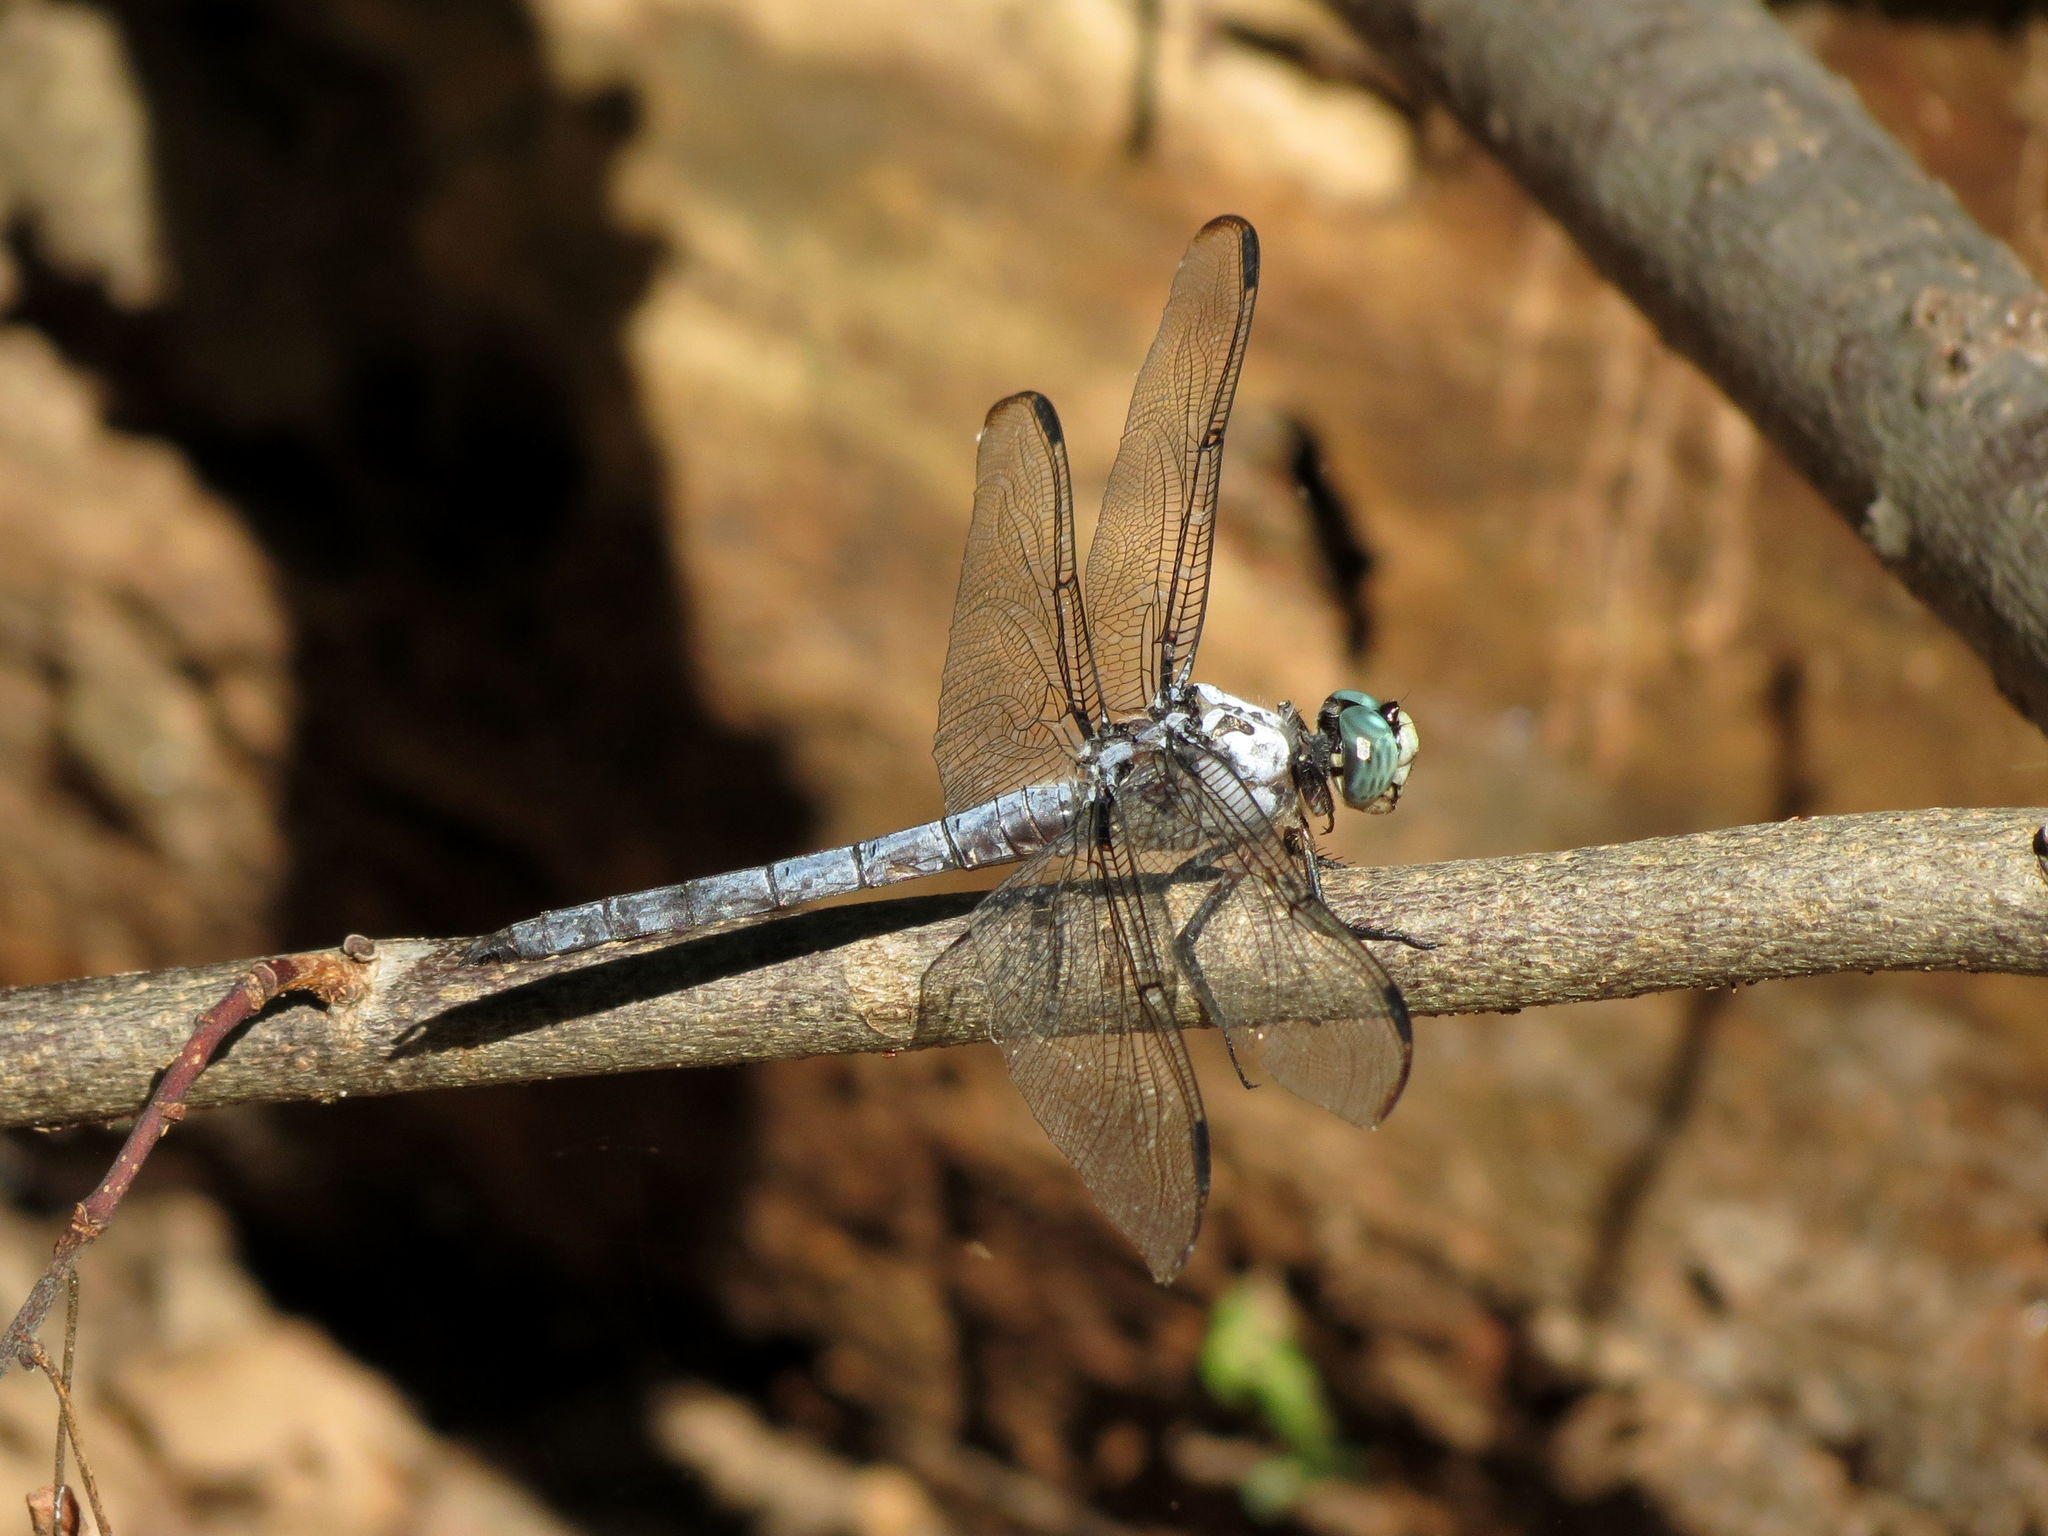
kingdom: Animalia
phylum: Arthropoda
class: Insecta
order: Odonata
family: Libellulidae
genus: Libellula
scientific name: Libellula vibrans
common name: Great blue skimmer
